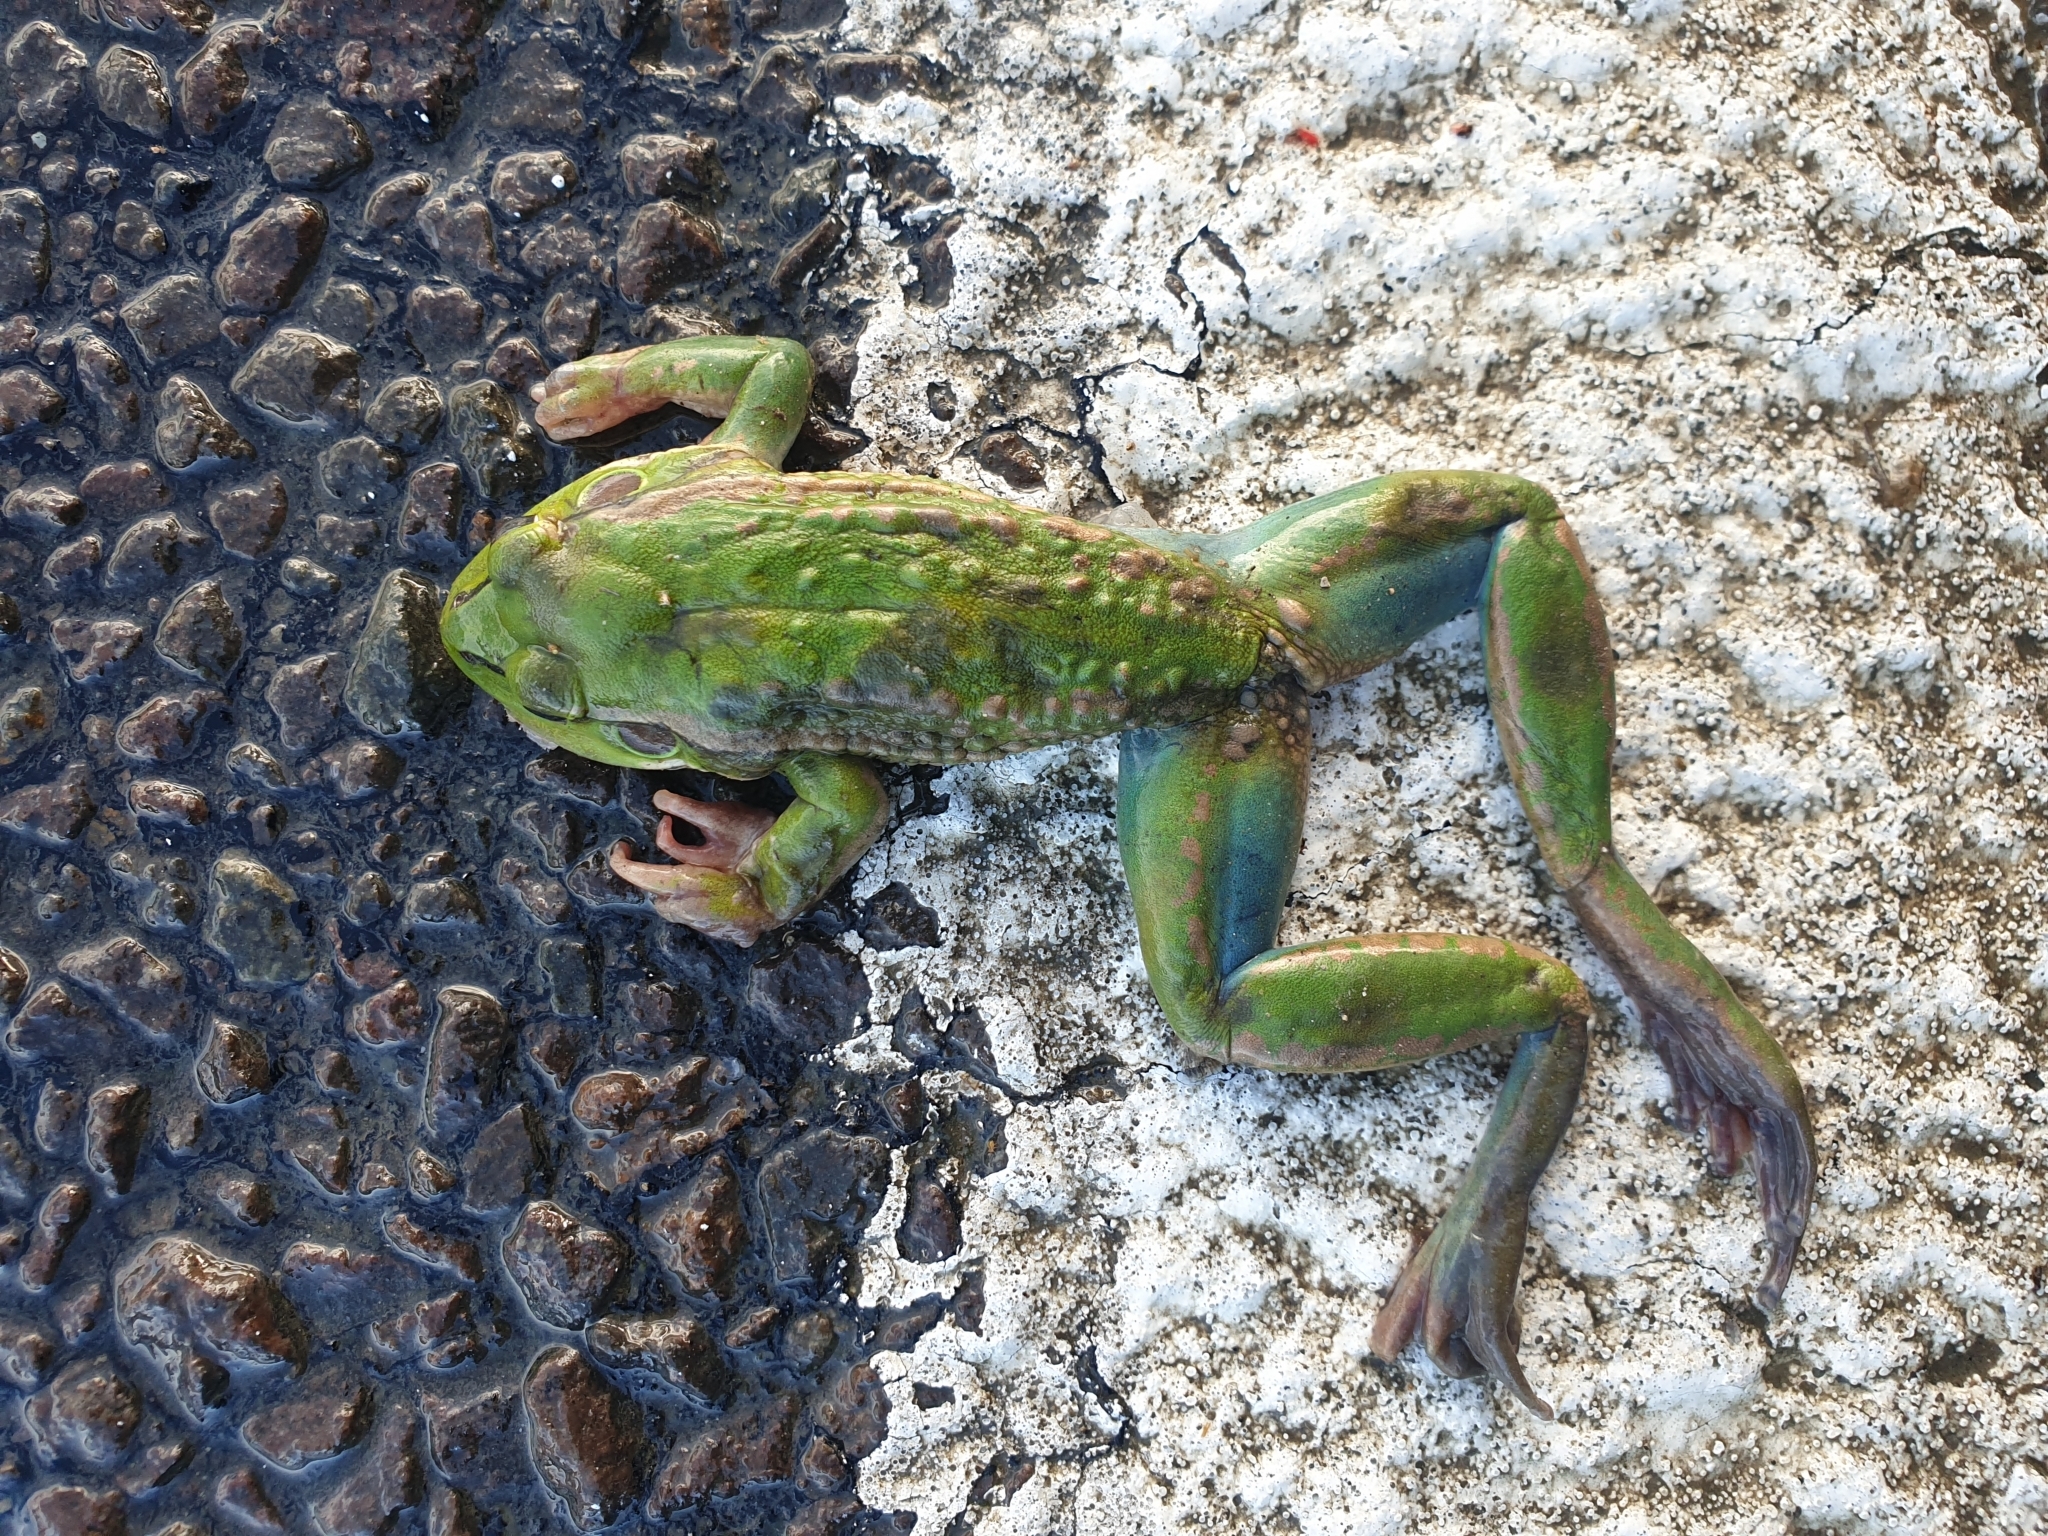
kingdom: Animalia
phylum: Chordata
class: Amphibia
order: Anura
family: Pelodryadidae
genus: Ranoidea
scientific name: Ranoidea raniformis
